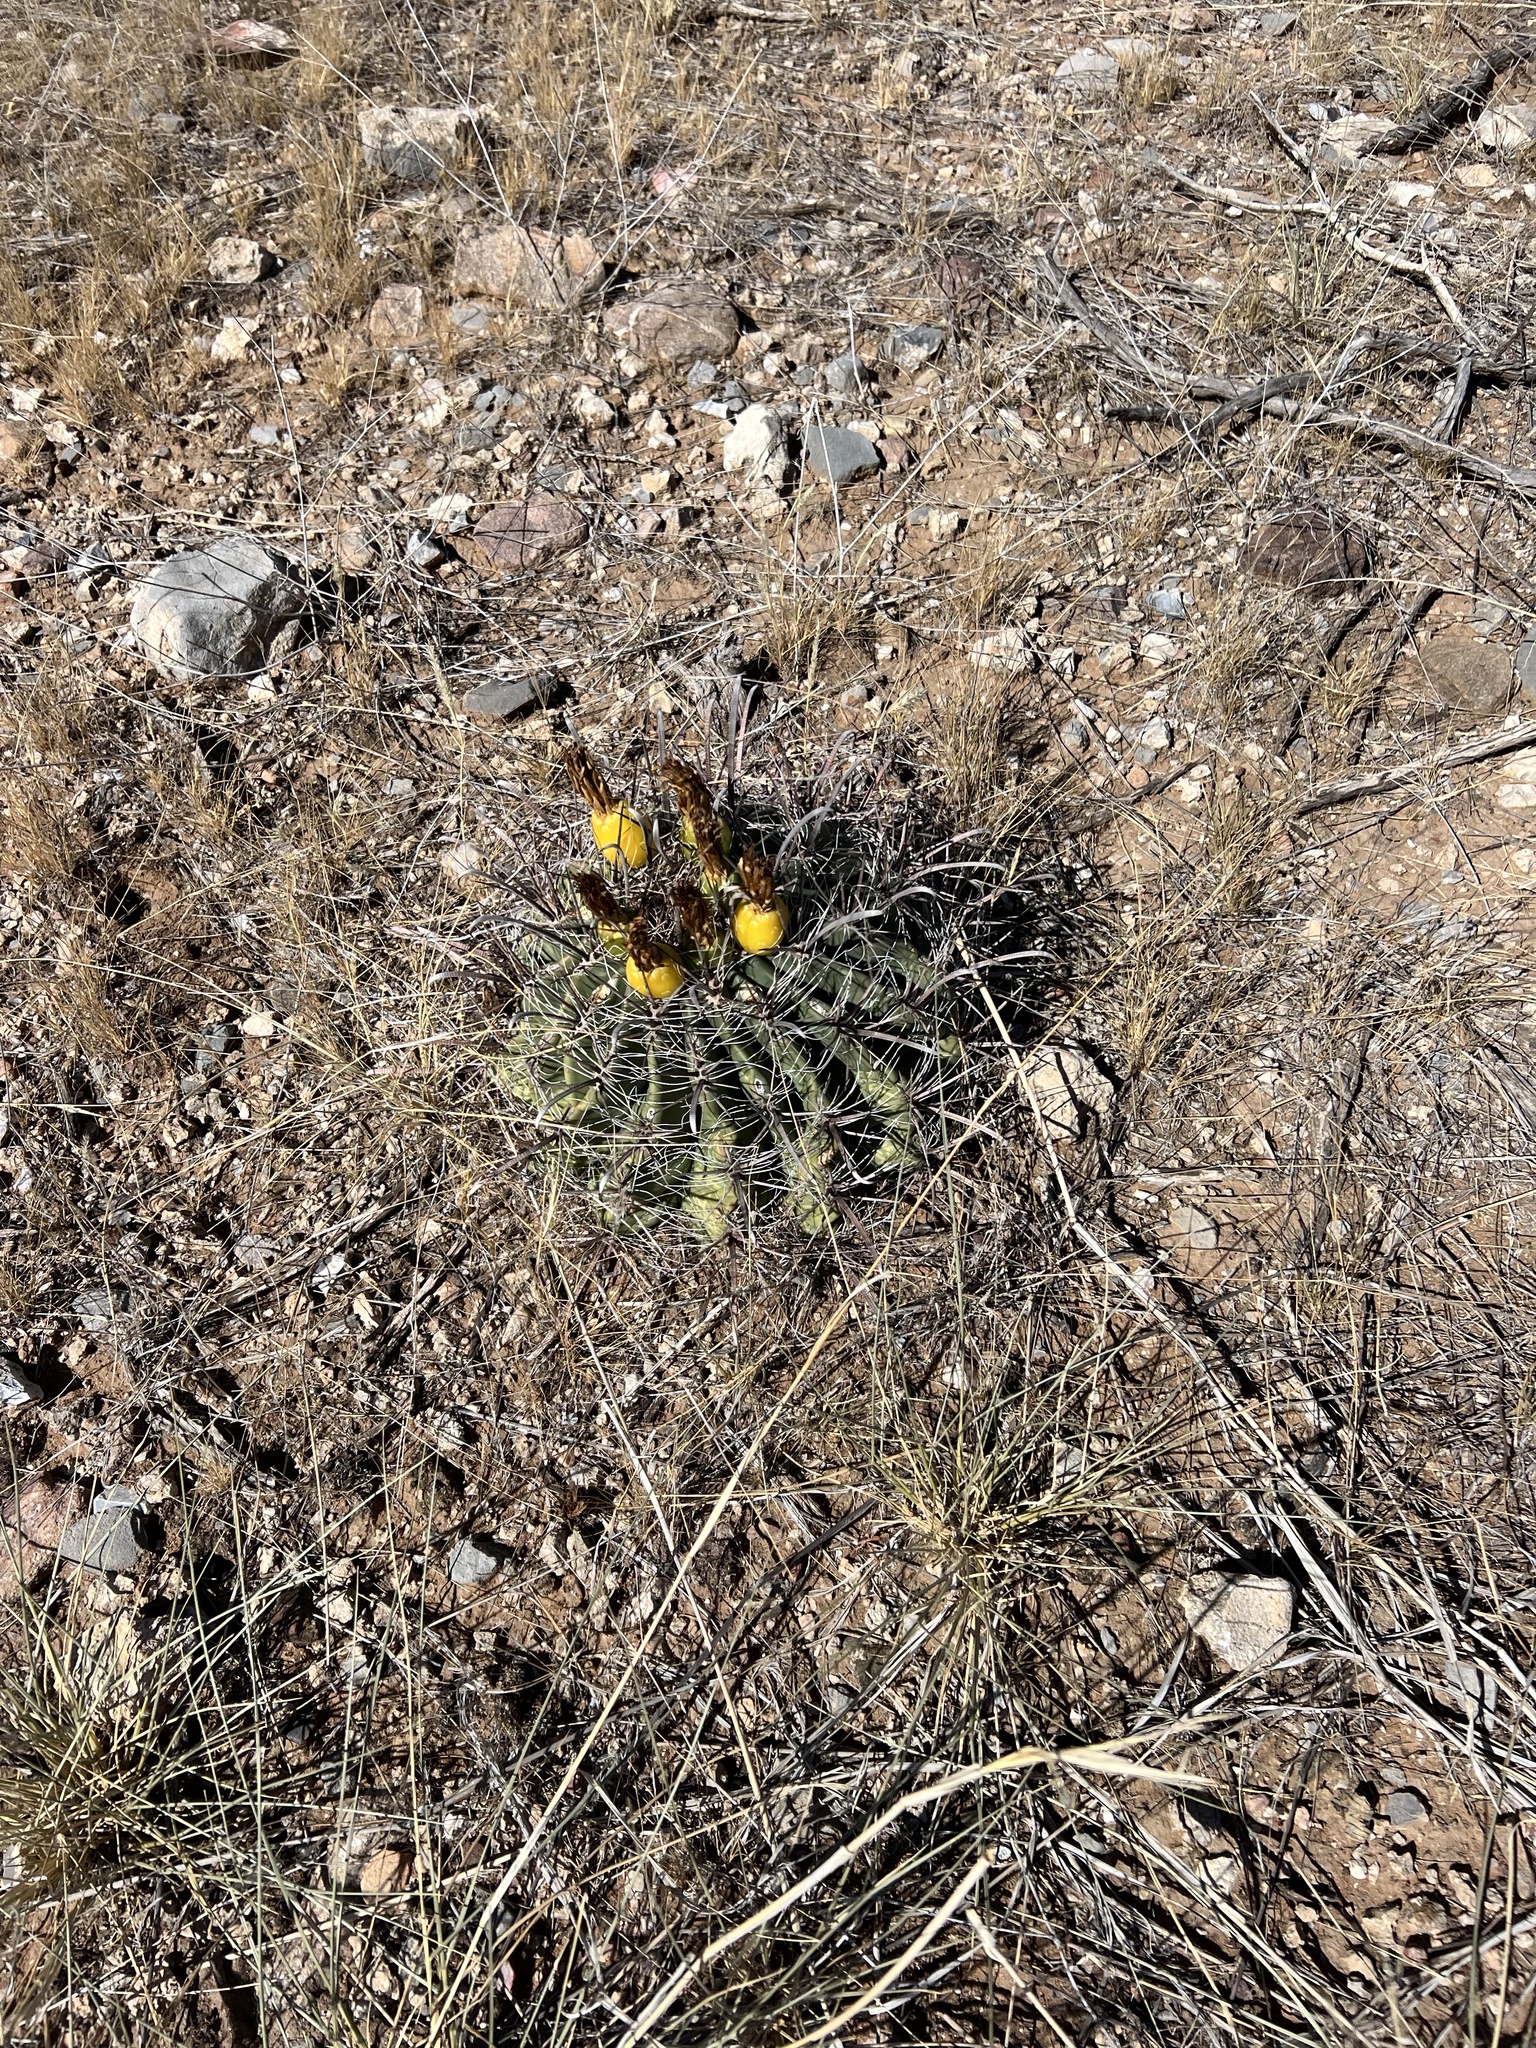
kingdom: Plantae
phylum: Tracheophyta
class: Magnoliopsida
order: Caryophyllales
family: Cactaceae
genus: Ferocactus
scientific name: Ferocactus wislizeni
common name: Candy barrel cactus
